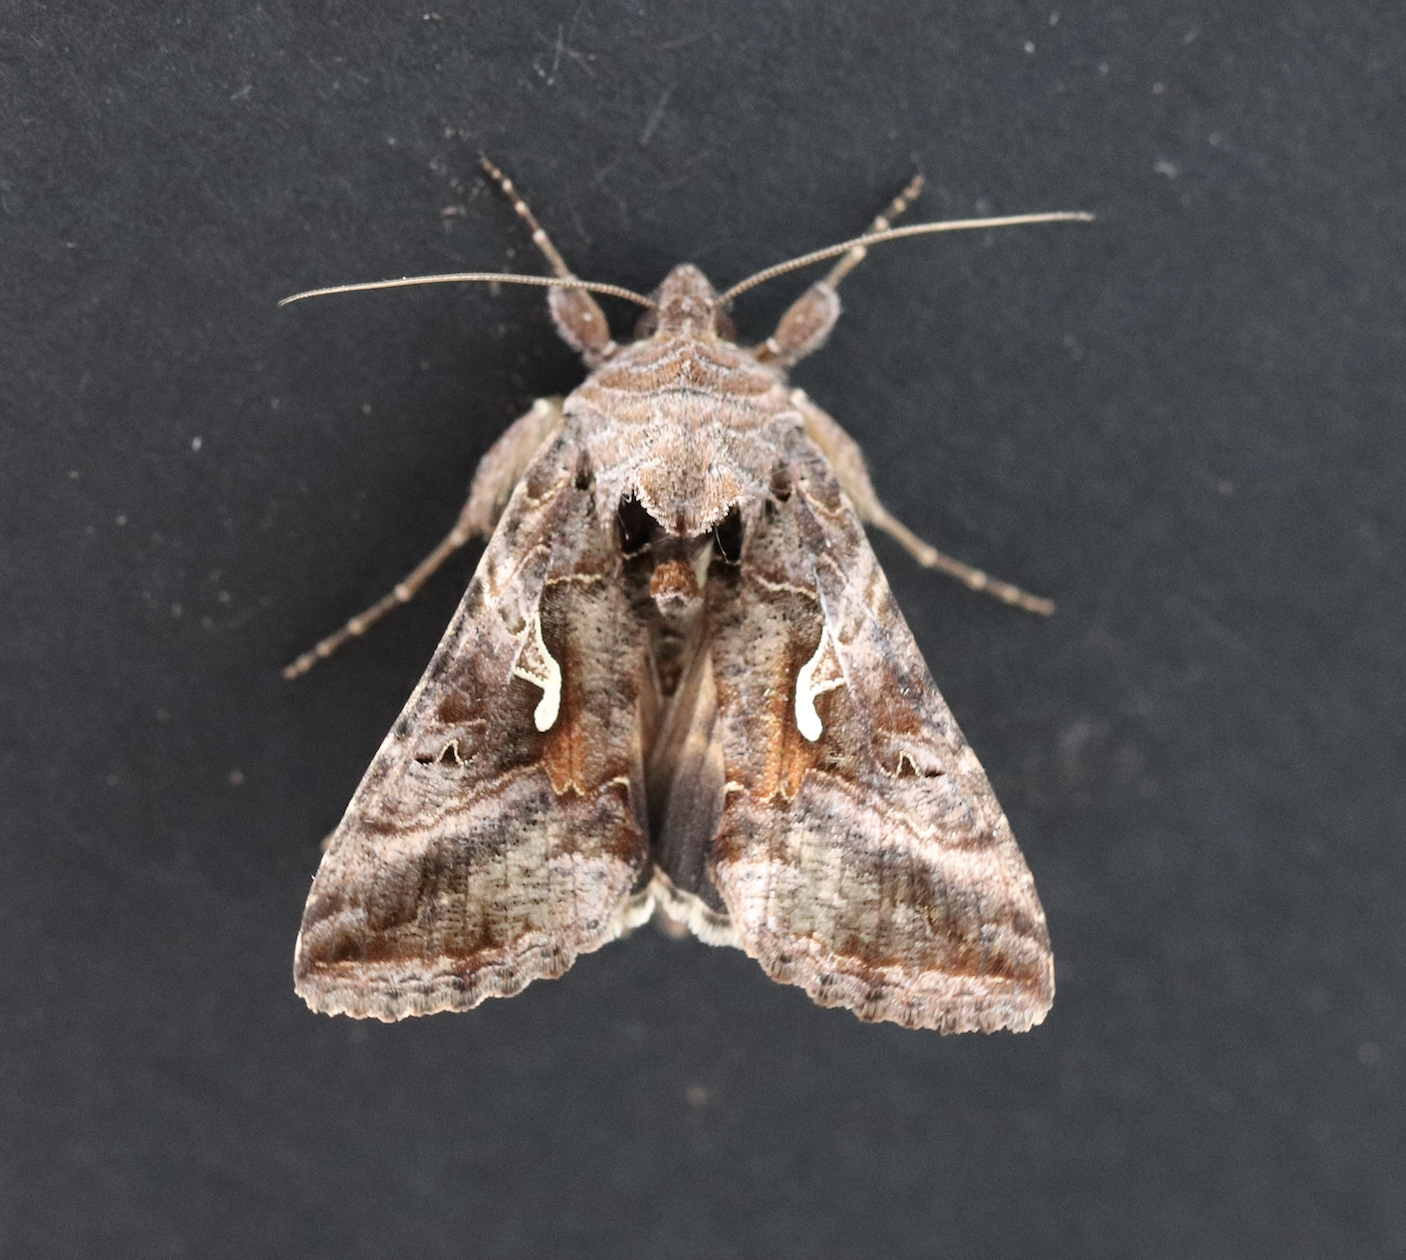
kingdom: Animalia
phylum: Arthropoda
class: Insecta
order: Lepidoptera
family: Noctuidae
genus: Autographa
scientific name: Autographa gamma
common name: Silver y
